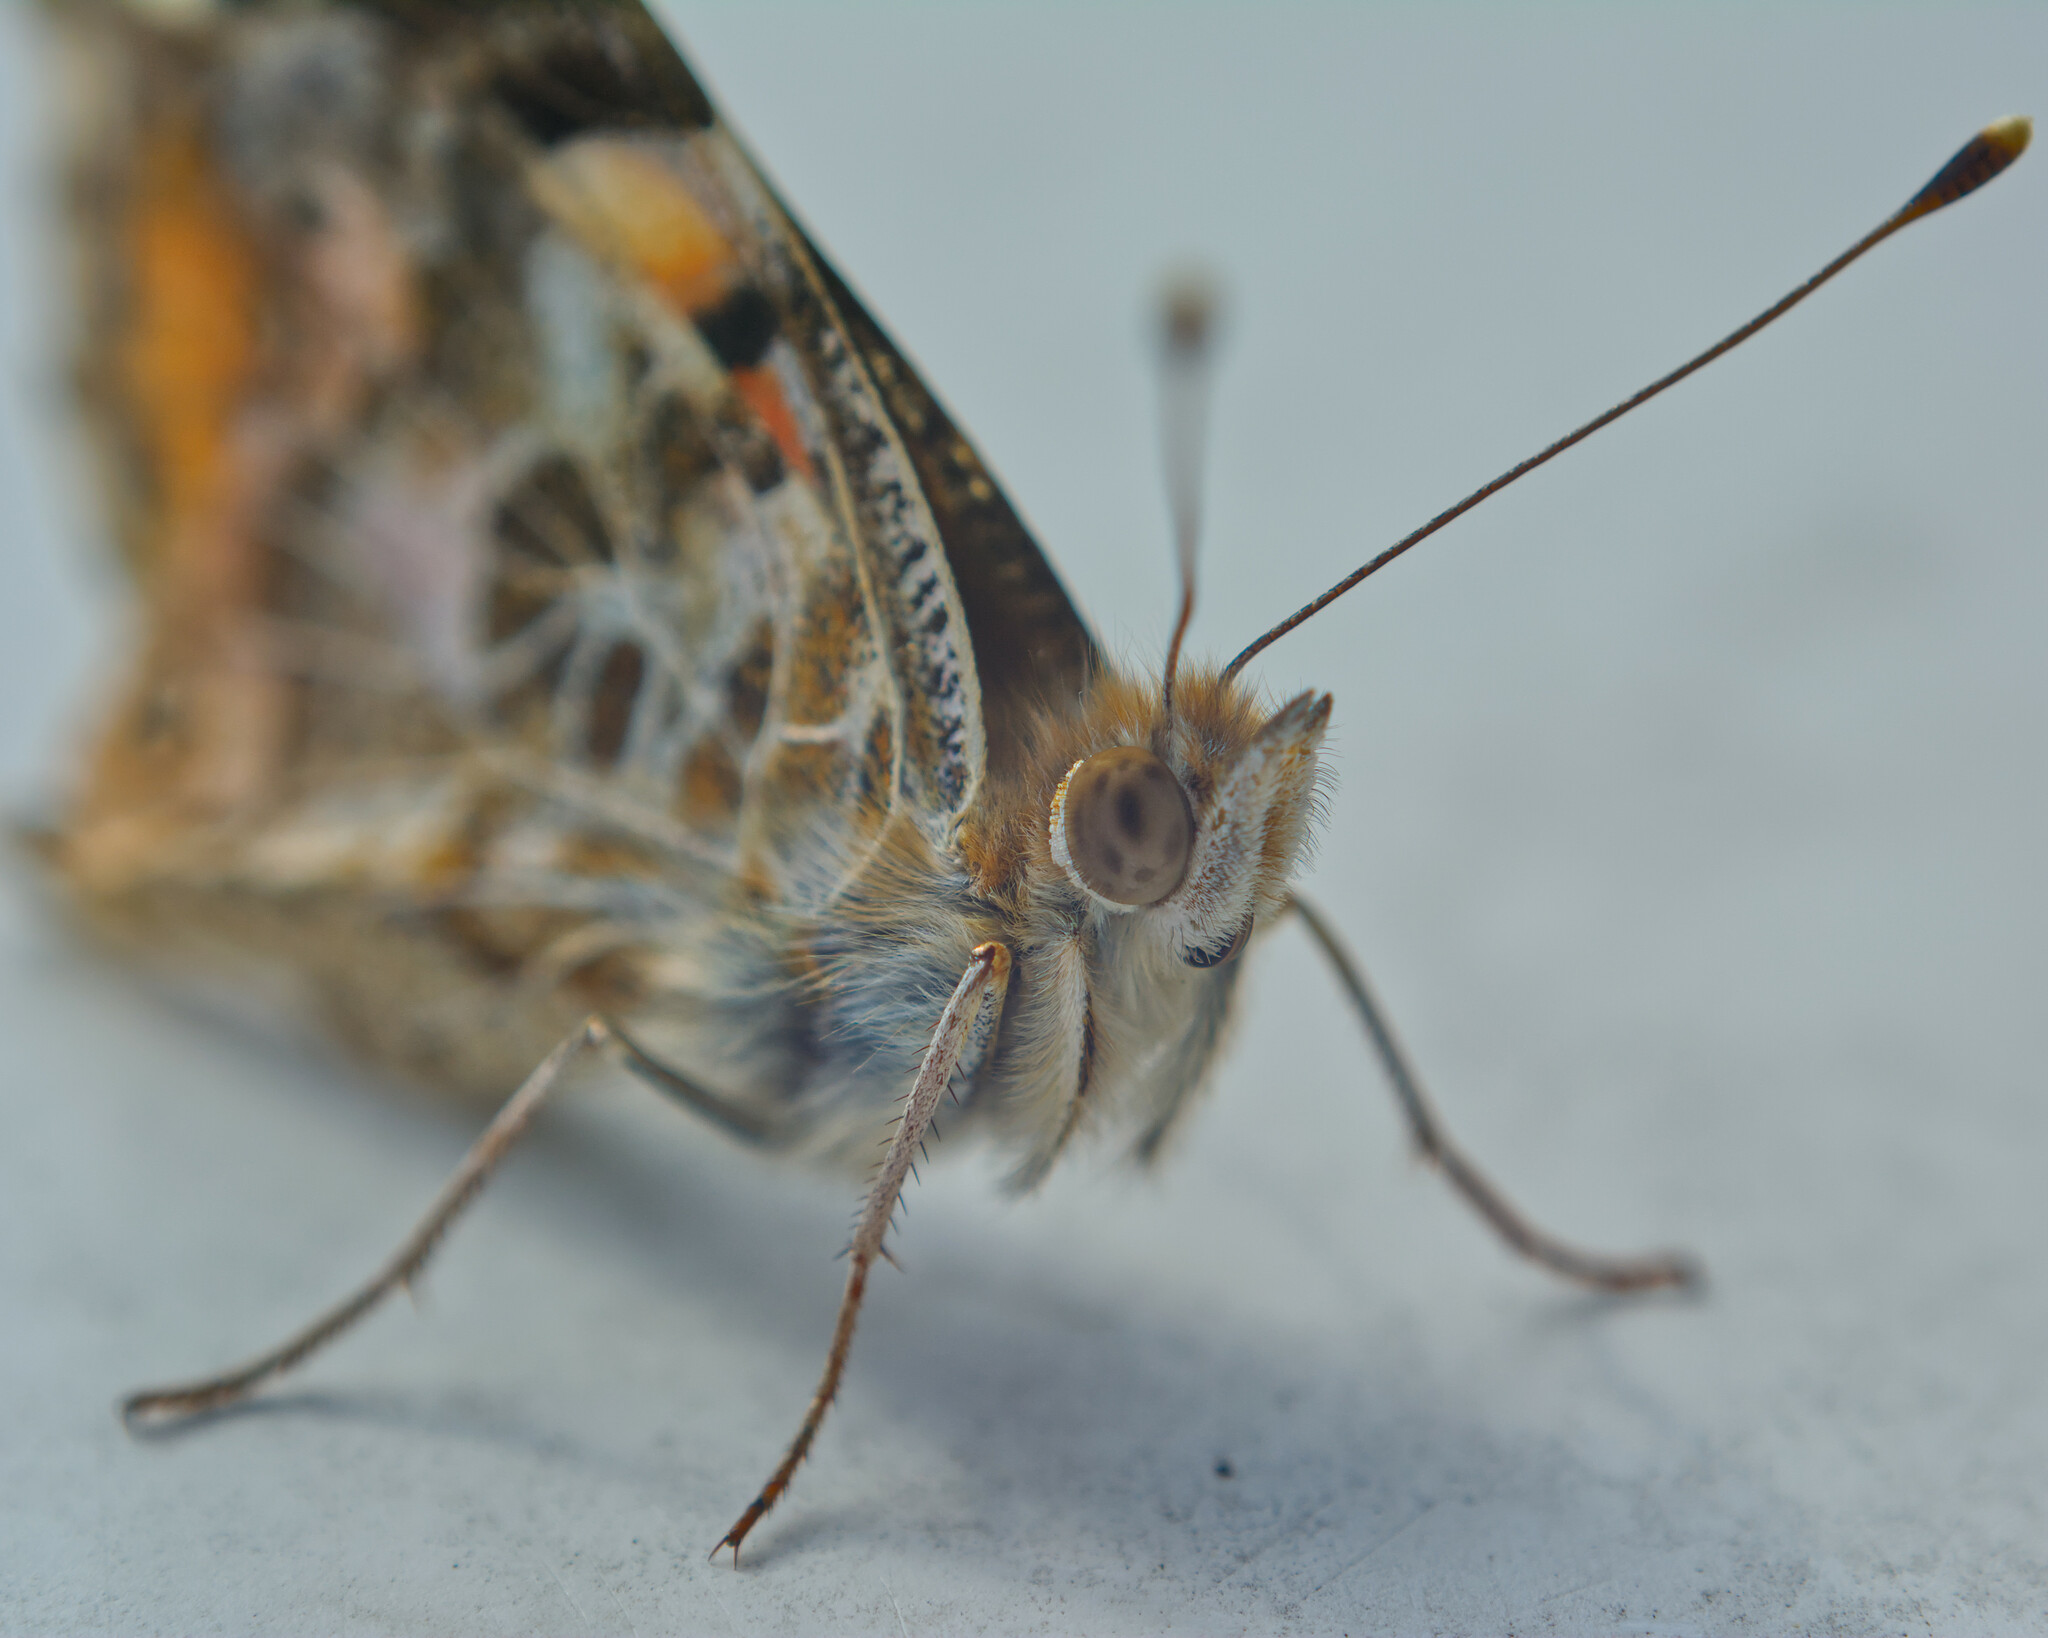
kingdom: Animalia
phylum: Arthropoda
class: Insecta
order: Lepidoptera
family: Nymphalidae
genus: Vanessa
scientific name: Vanessa cardui
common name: Painted lady
